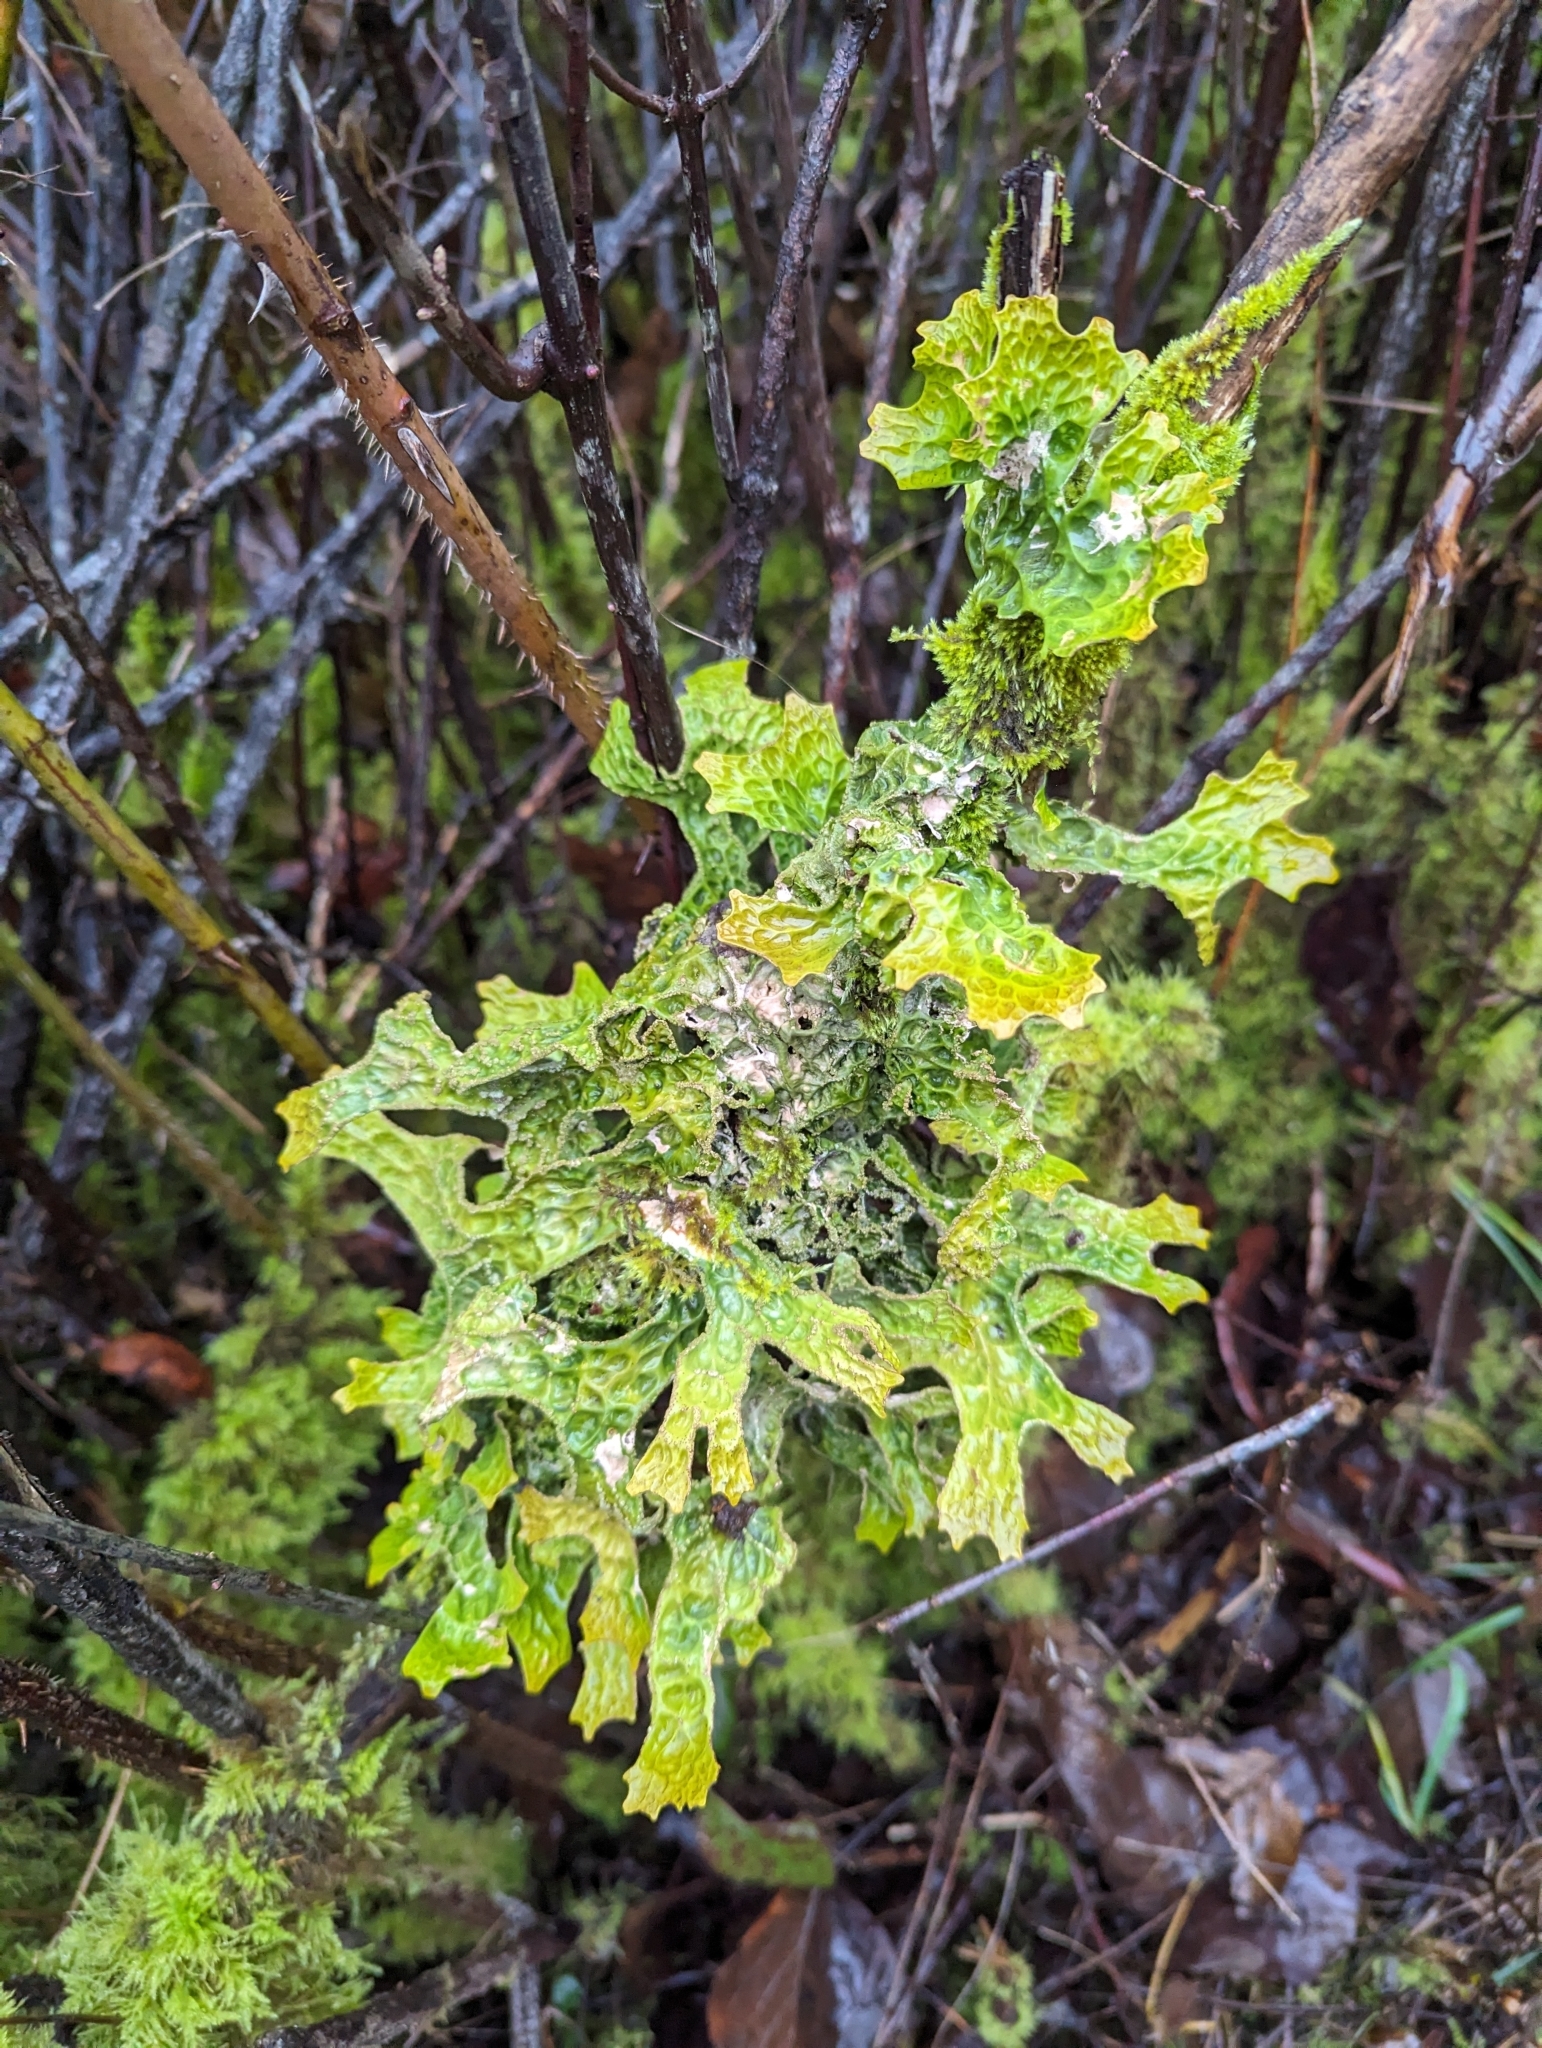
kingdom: Fungi
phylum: Ascomycota
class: Lecanoromycetes
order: Peltigerales
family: Lobariaceae
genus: Lobaria
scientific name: Lobaria pulmonaria
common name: Lungwort
